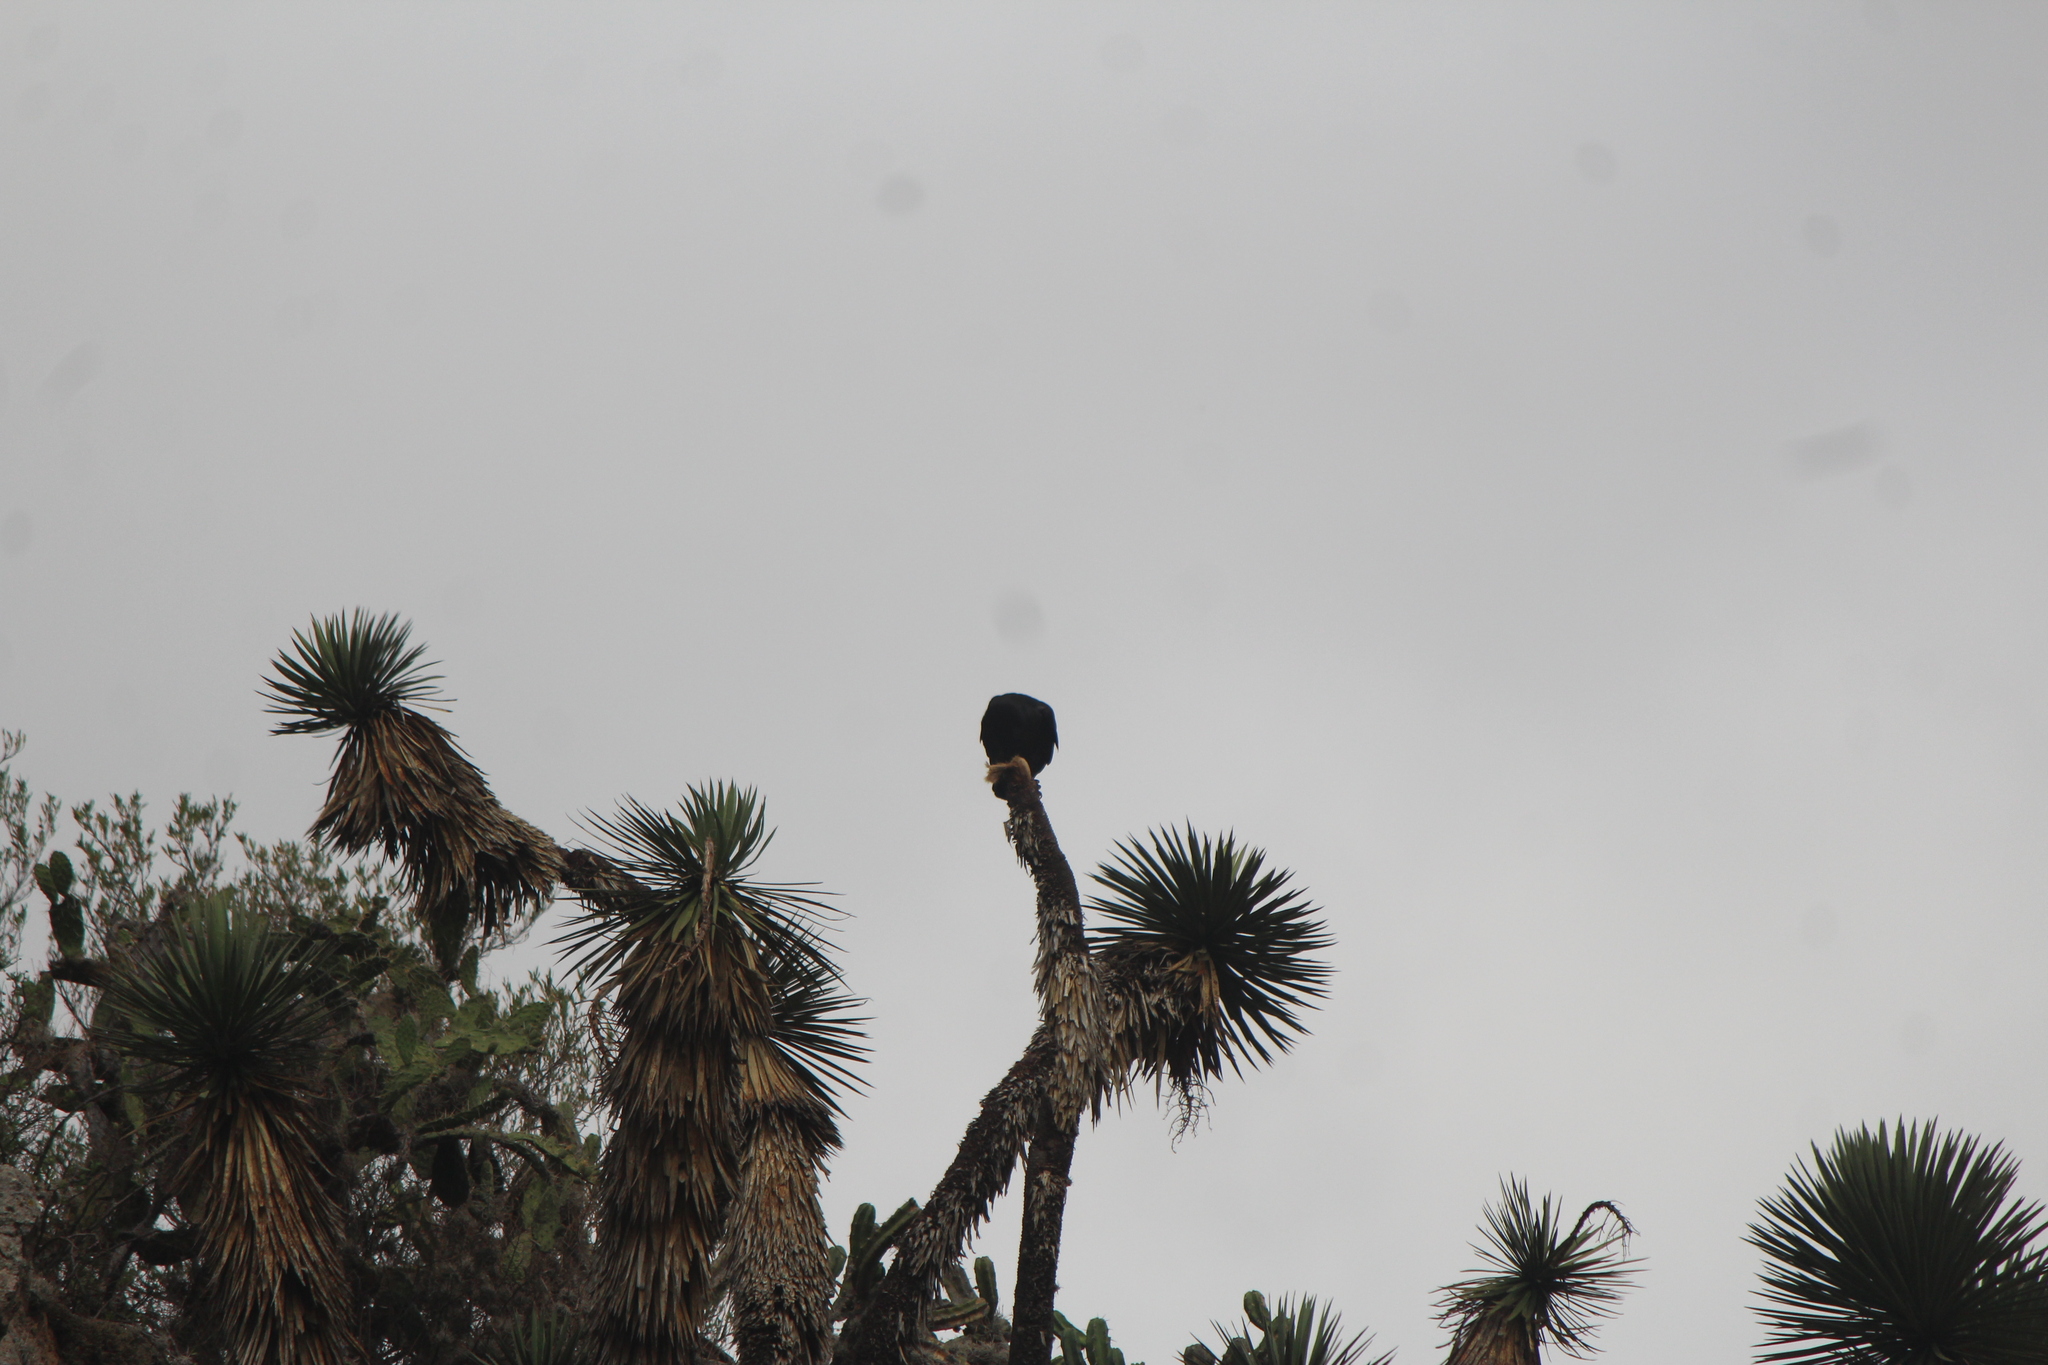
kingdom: Animalia
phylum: Chordata
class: Aves
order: Passeriformes
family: Corvidae
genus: Corvus
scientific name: Corvus corax
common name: Common raven
